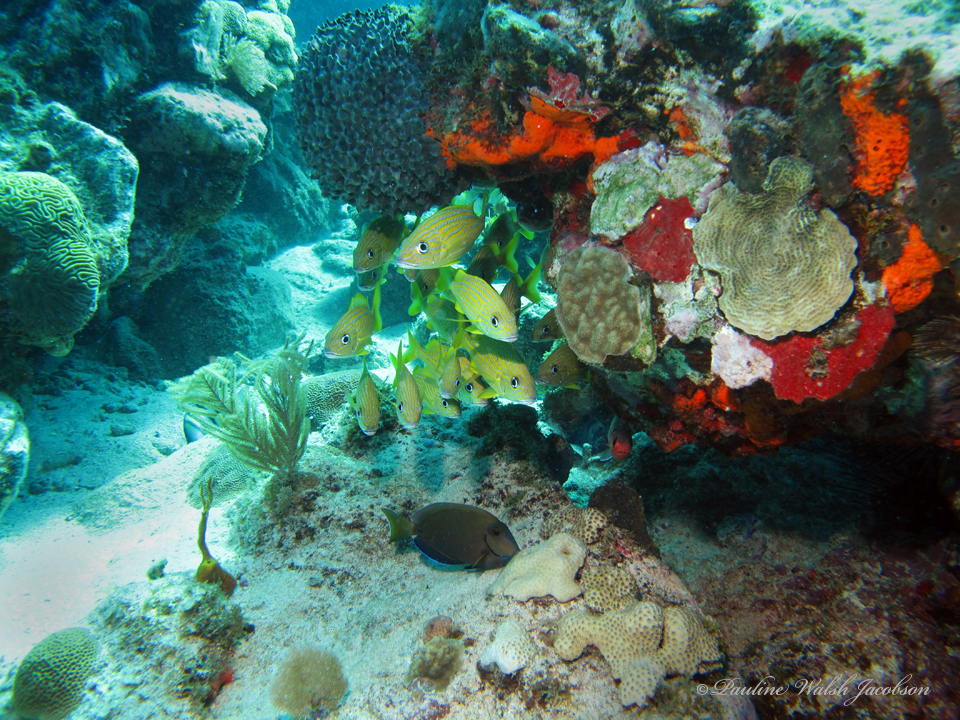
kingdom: Animalia
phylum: Chordata
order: Perciformes
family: Haemulidae
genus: Haemulon
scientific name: Haemulon flavolineatum
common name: French grunt
